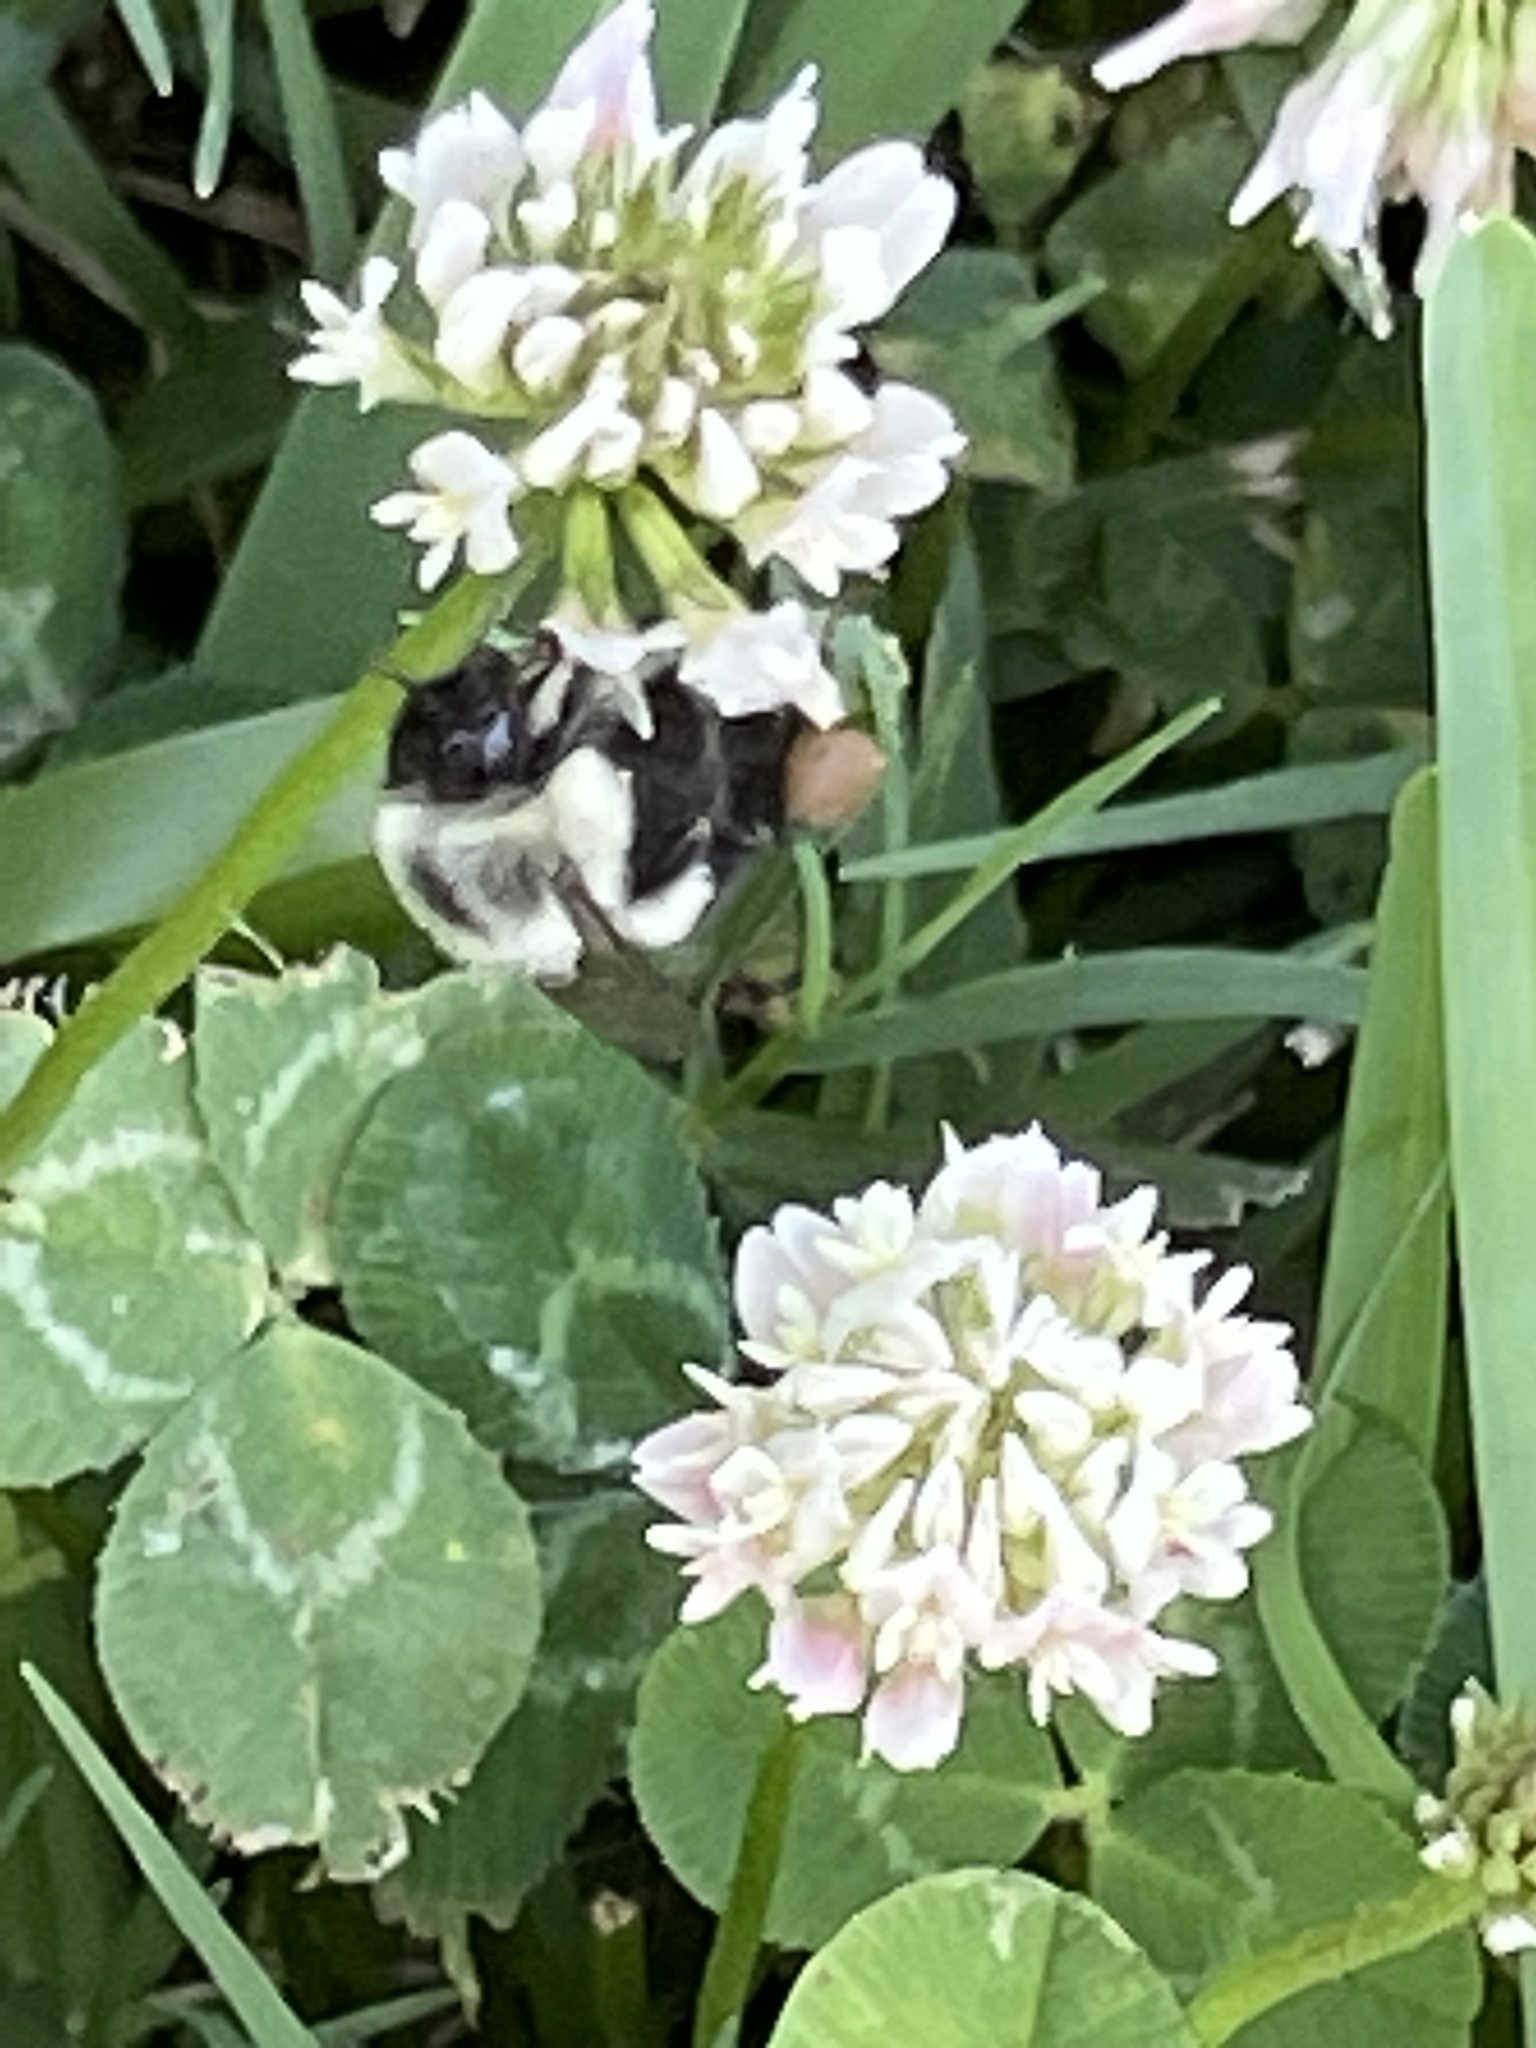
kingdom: Animalia
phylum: Arthropoda
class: Insecta
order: Hymenoptera
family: Apidae
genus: Bombus
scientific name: Bombus impatiens
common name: Common eastern bumble bee
